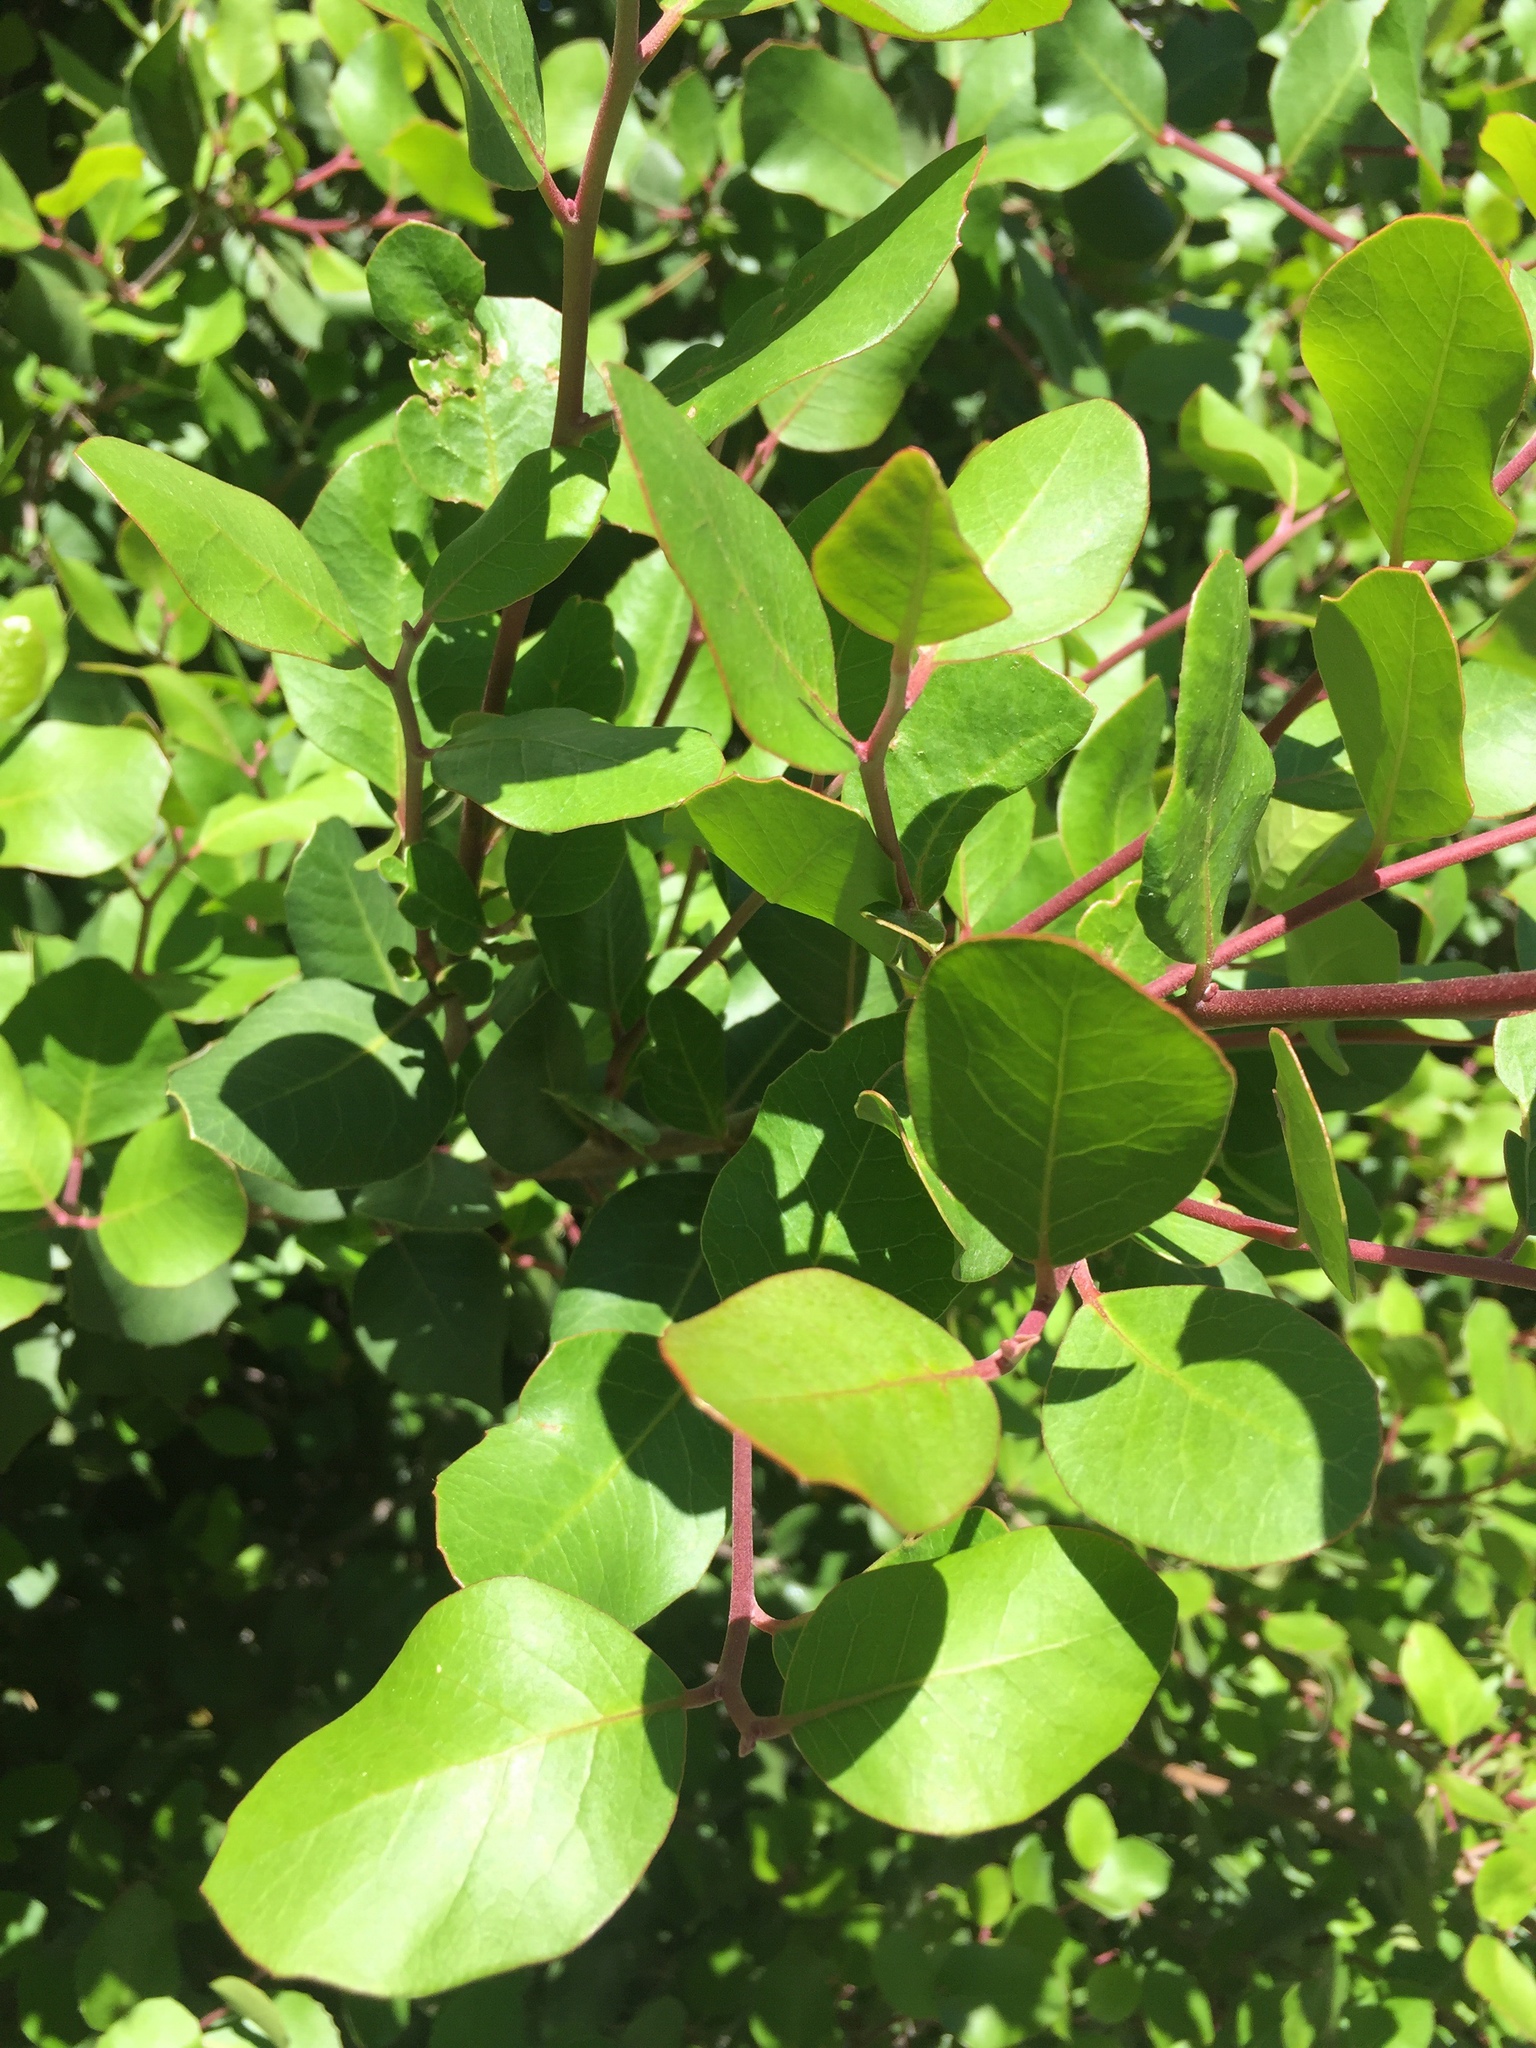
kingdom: Plantae
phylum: Tracheophyta
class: Magnoliopsida
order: Sapindales
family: Anacardiaceae
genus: Rhus
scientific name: Rhus integrifolia
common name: Lemonade sumac
